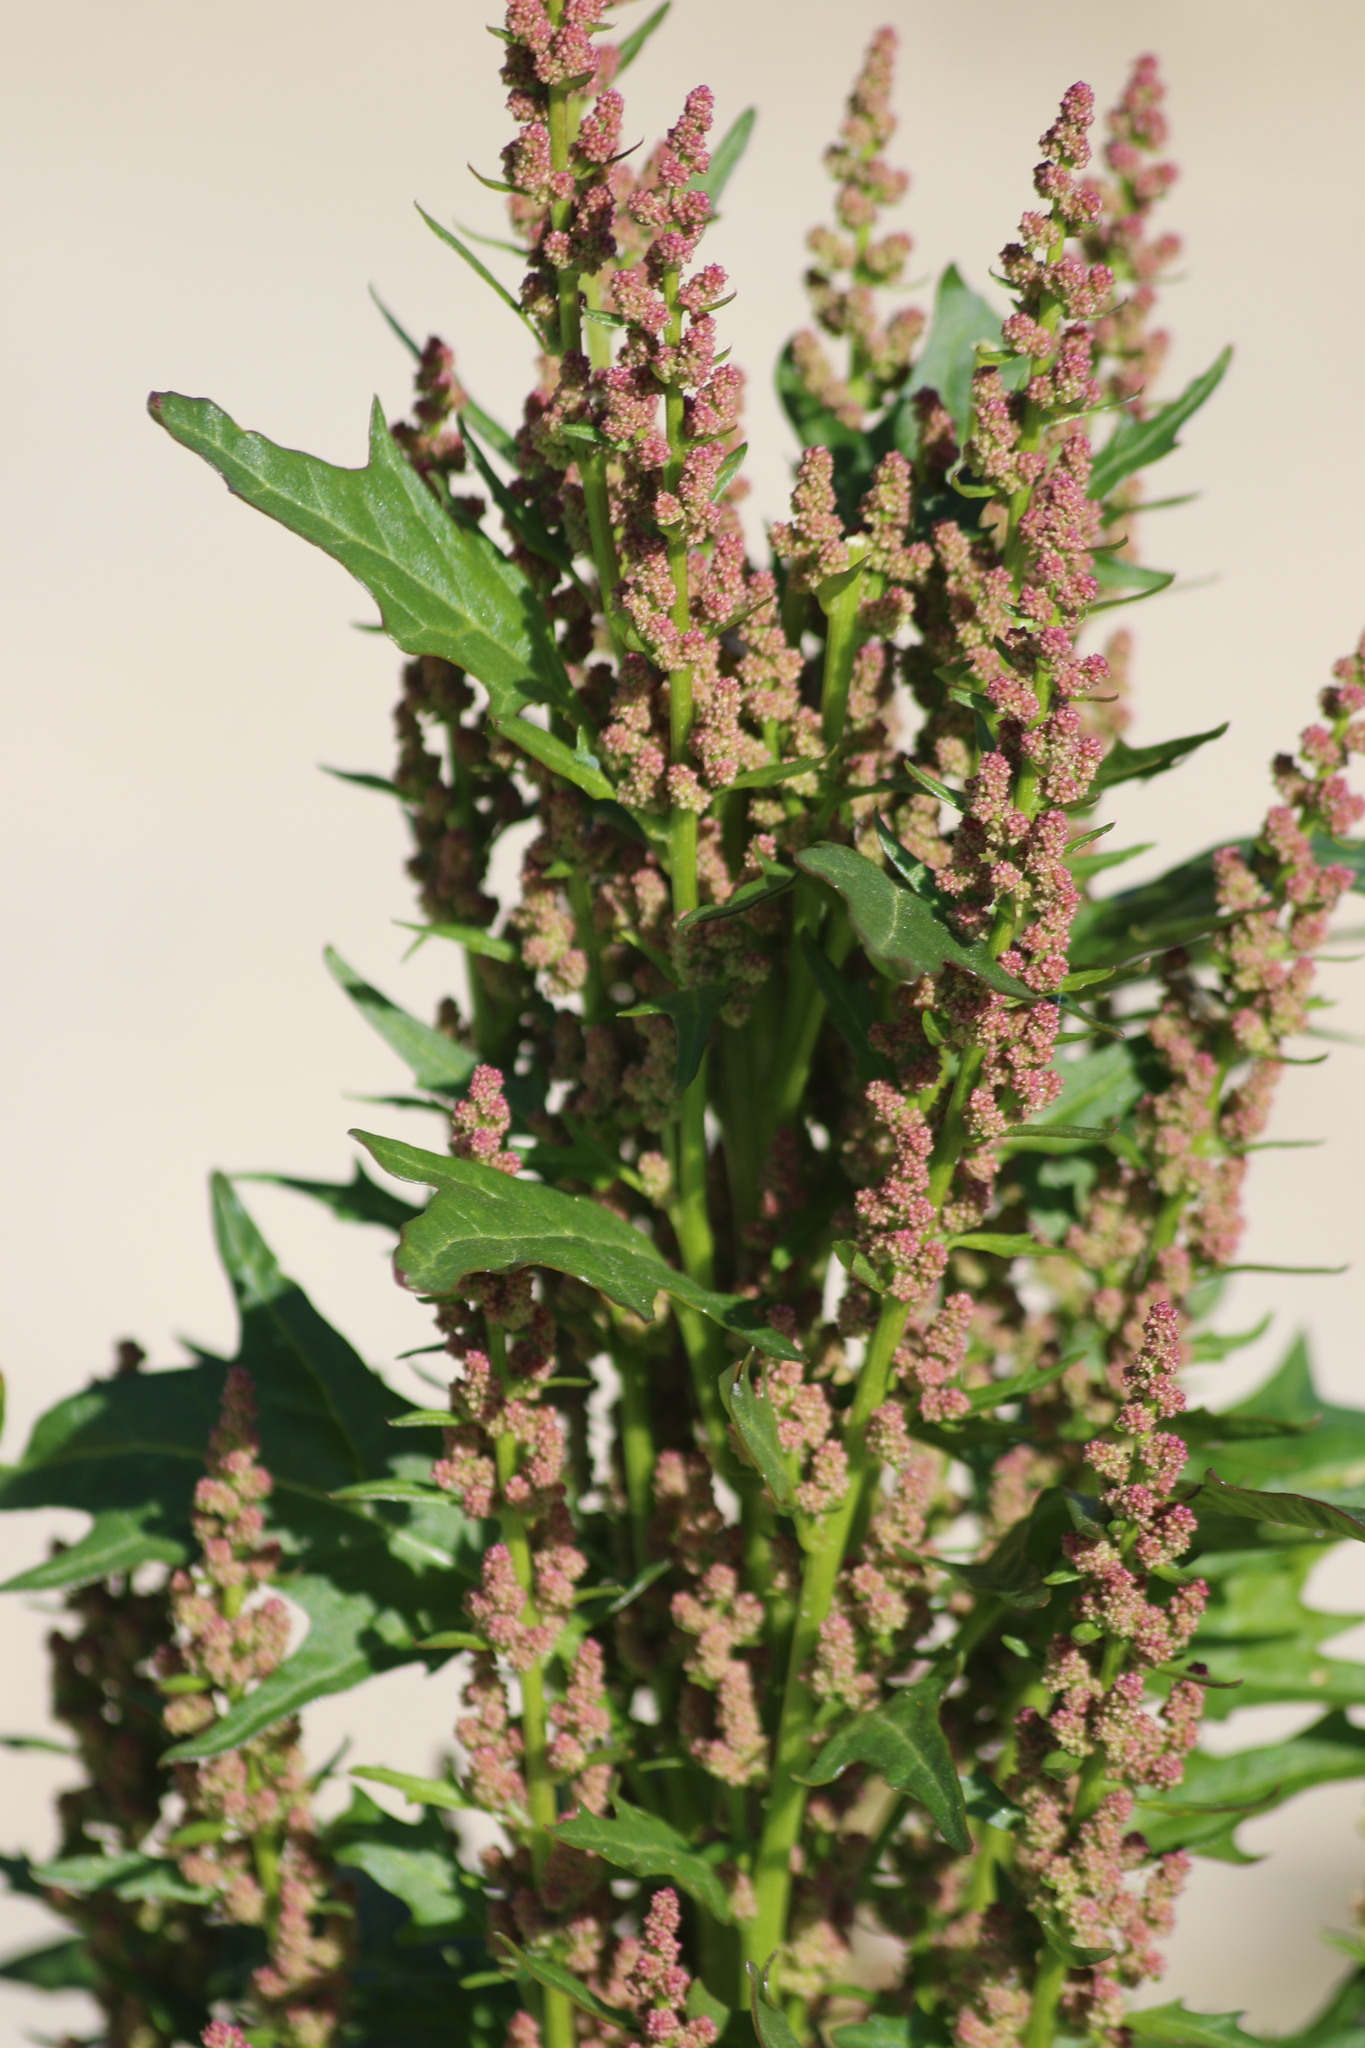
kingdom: Plantae
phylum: Tracheophyta
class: Magnoliopsida
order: Caryophyllales
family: Amaranthaceae
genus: Oxybasis
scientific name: Oxybasis rubra
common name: Red goosefoot
